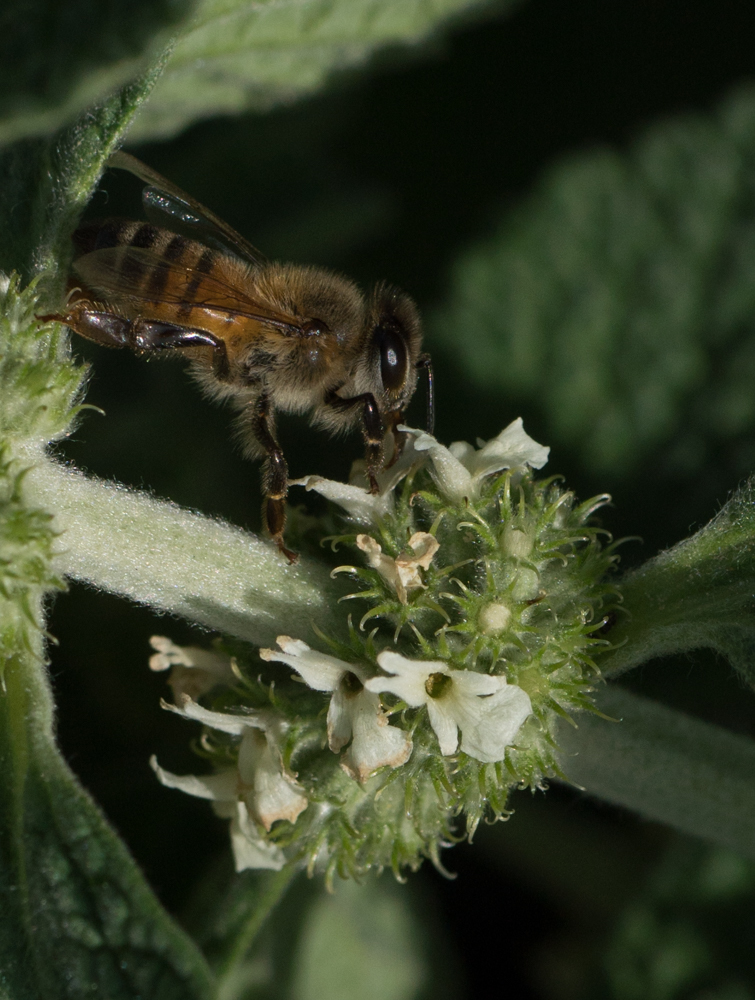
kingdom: Animalia
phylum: Arthropoda
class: Insecta
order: Hymenoptera
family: Apidae
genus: Apis
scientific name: Apis mellifera
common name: Honey bee
